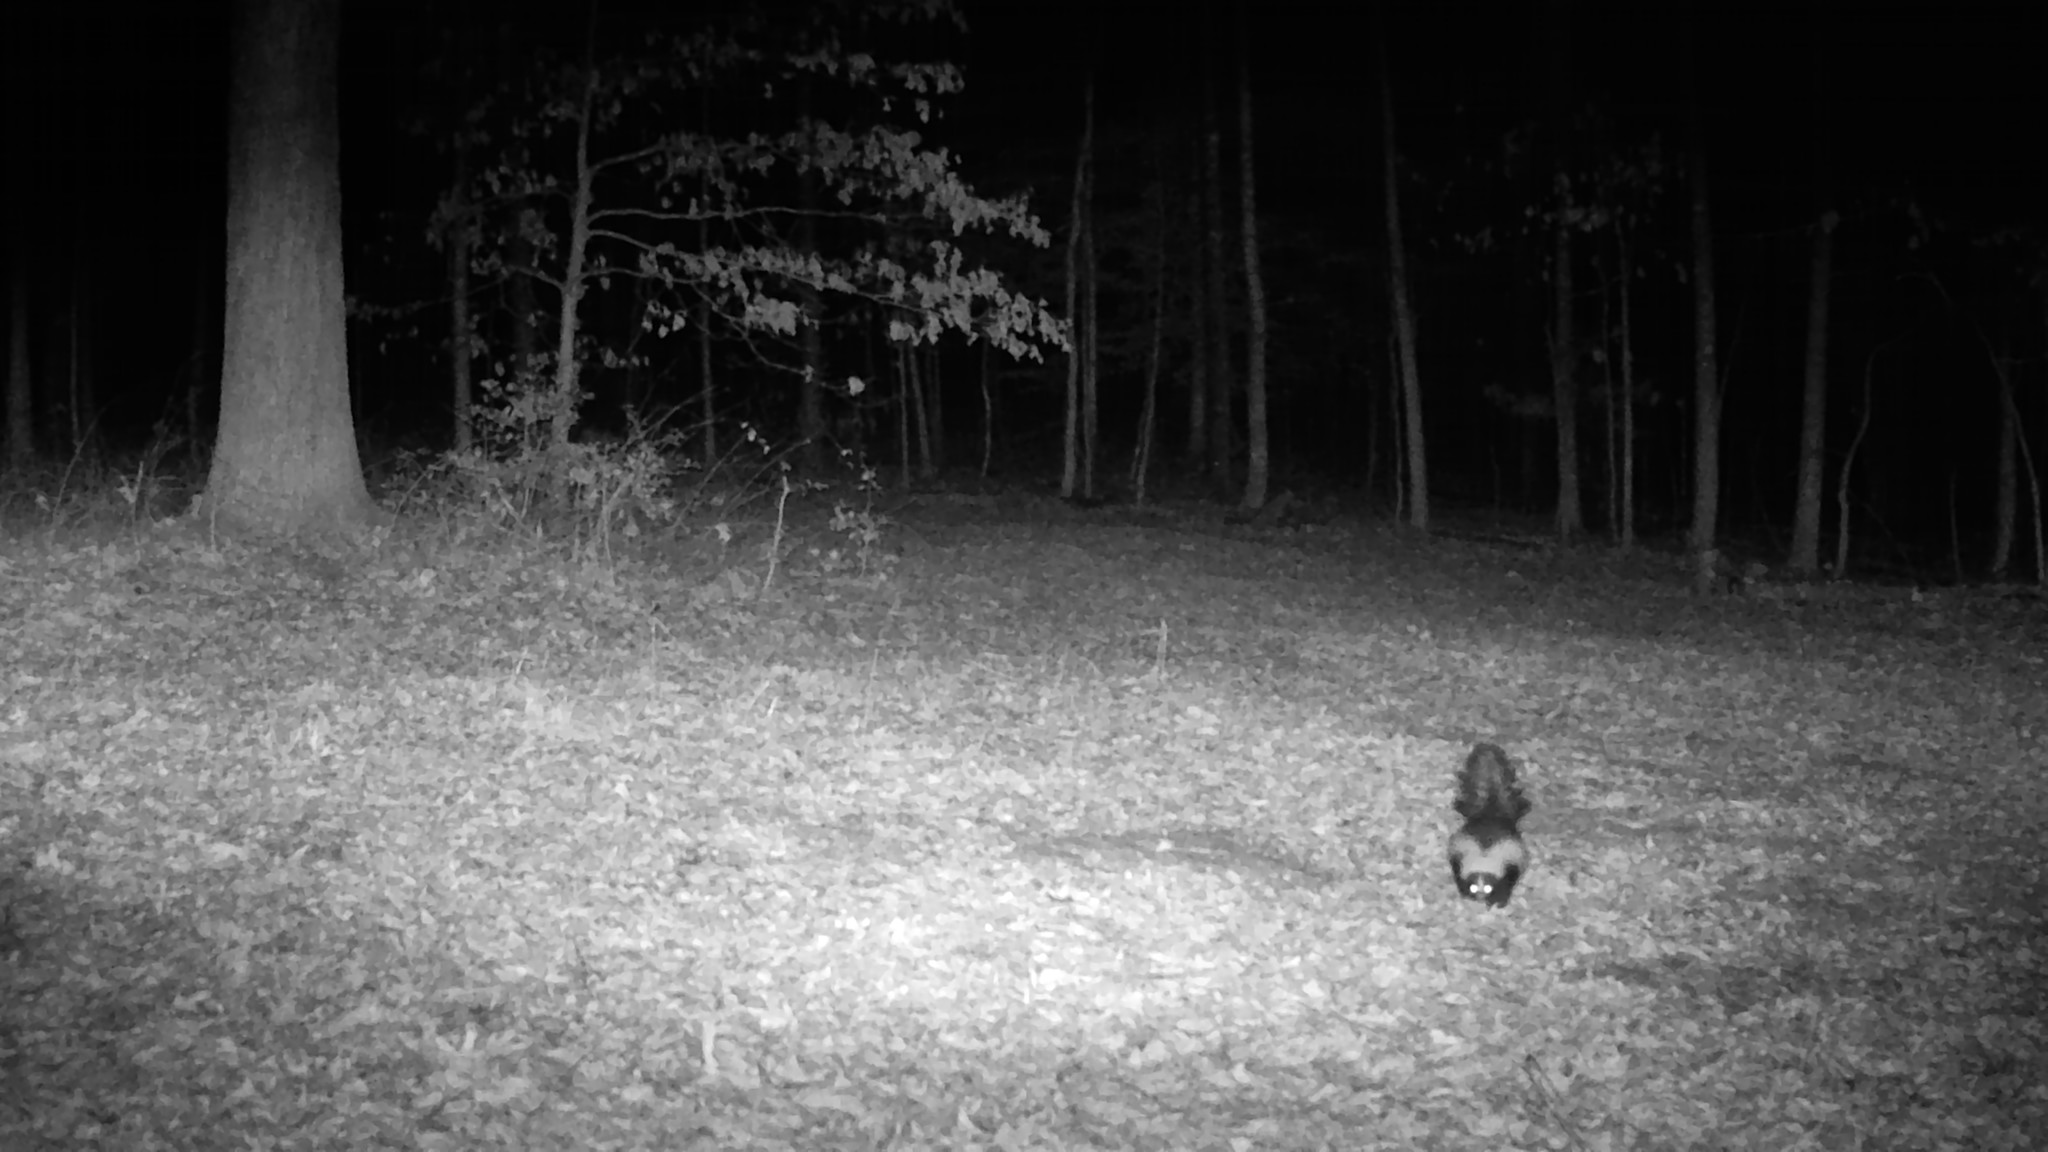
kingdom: Animalia
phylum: Chordata
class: Mammalia
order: Carnivora
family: Mephitidae
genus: Mephitis
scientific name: Mephitis mephitis
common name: Striped skunk
